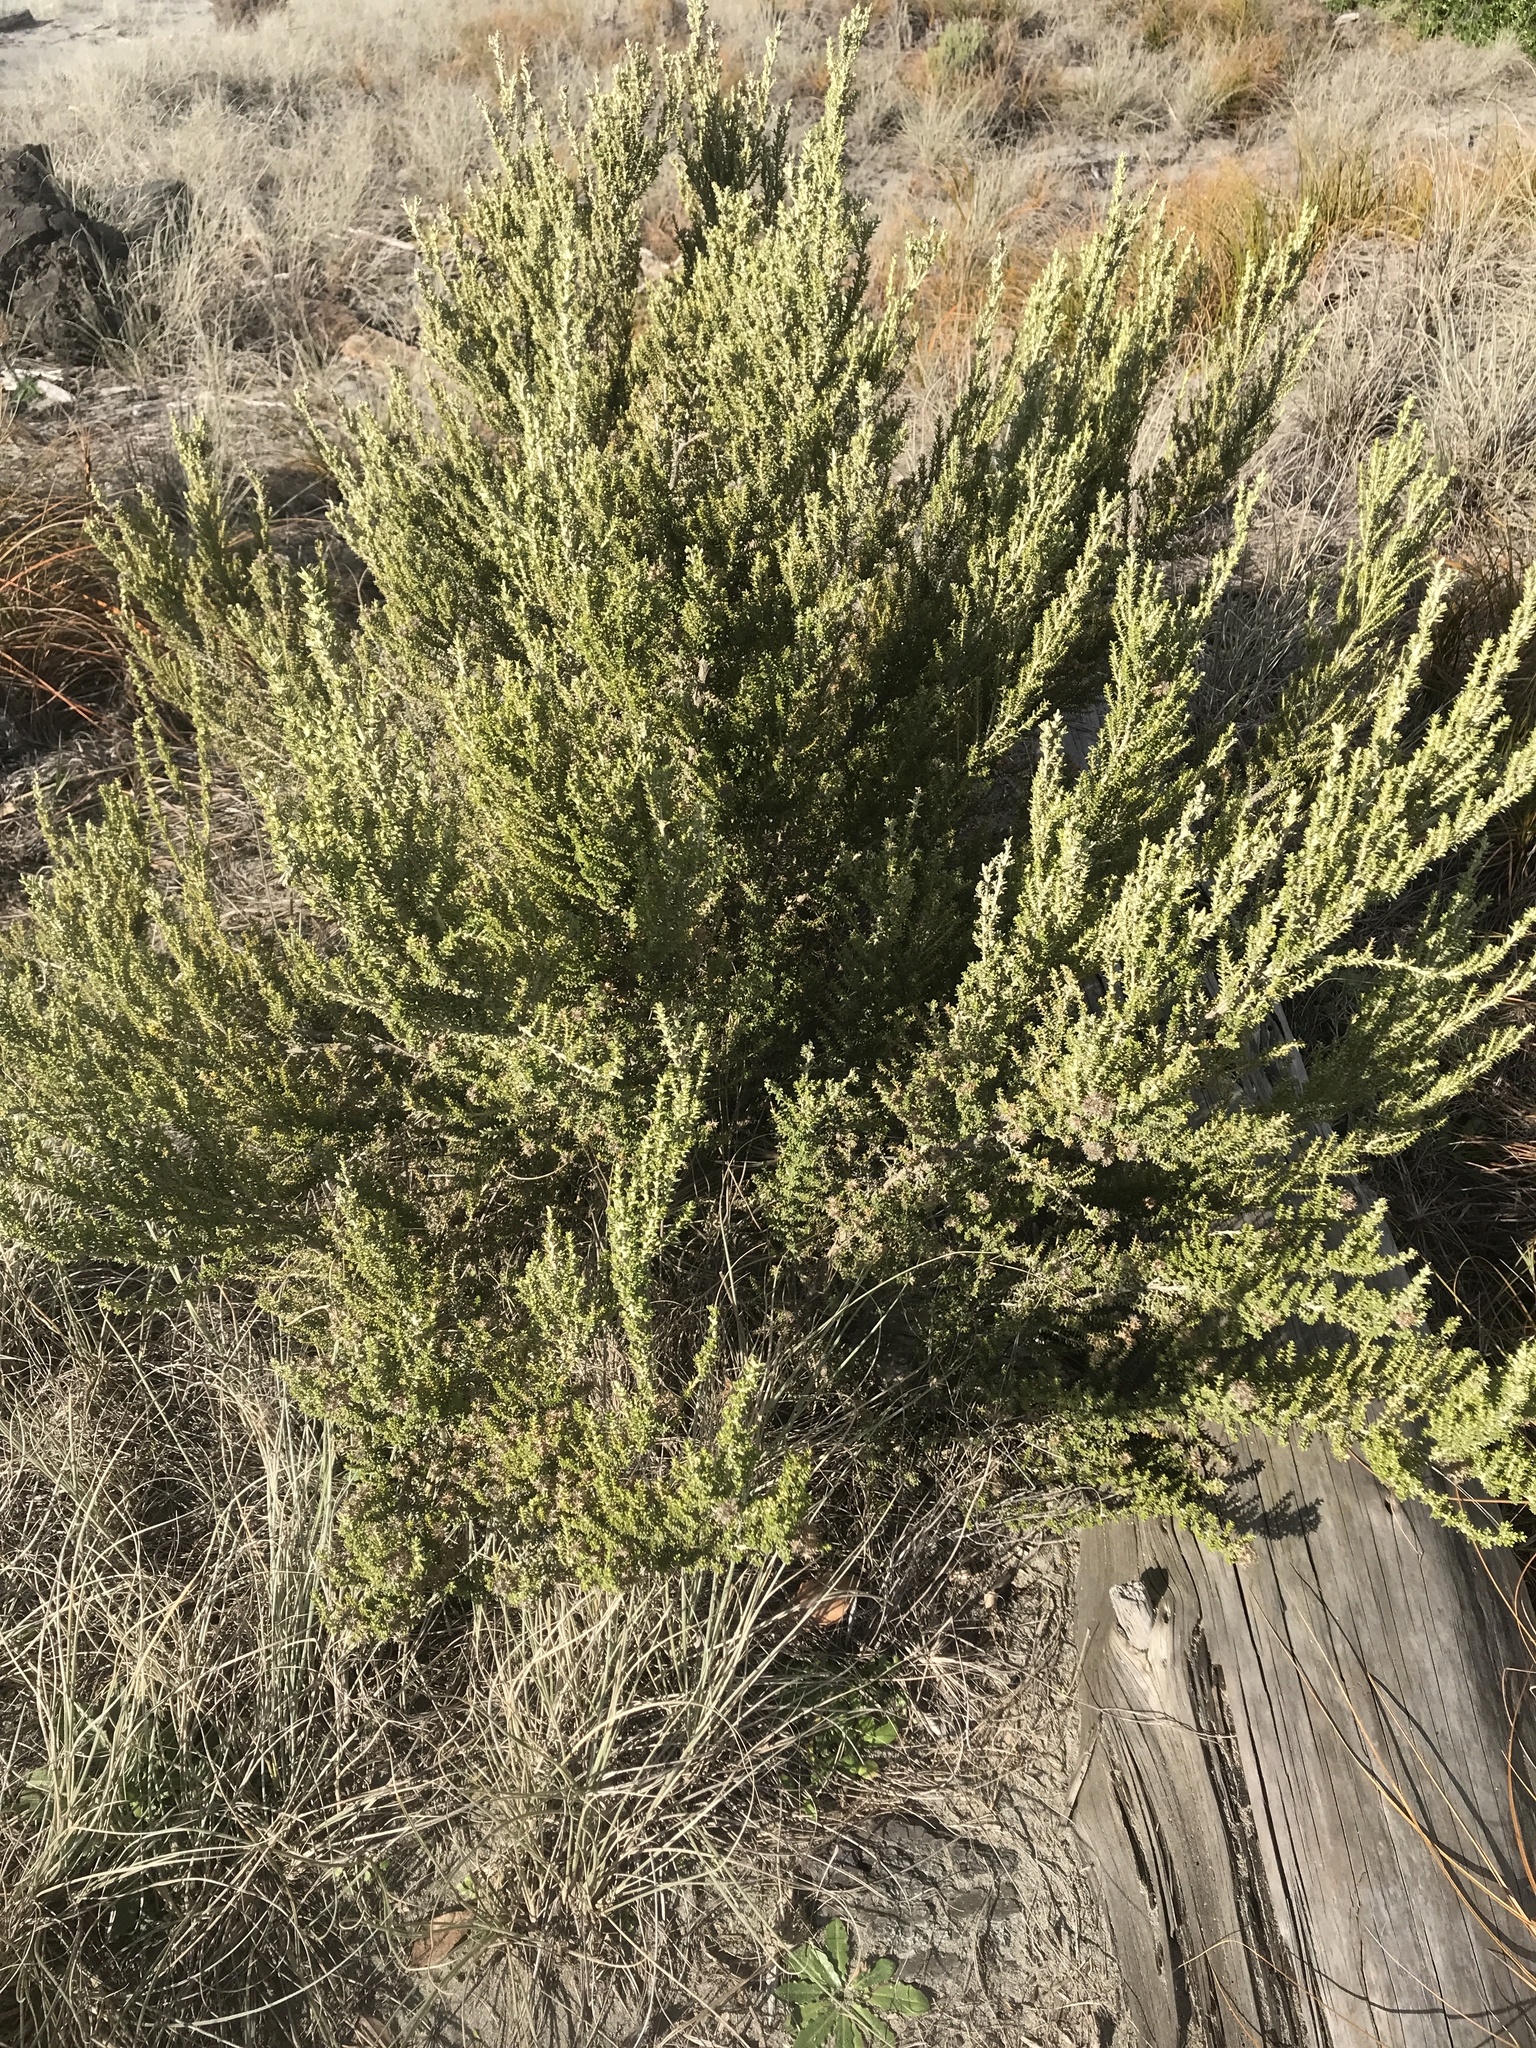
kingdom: Plantae
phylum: Tracheophyta
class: Magnoliopsida
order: Asterales
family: Asteraceae
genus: Ozothamnus
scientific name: Ozothamnus leptophyllus
